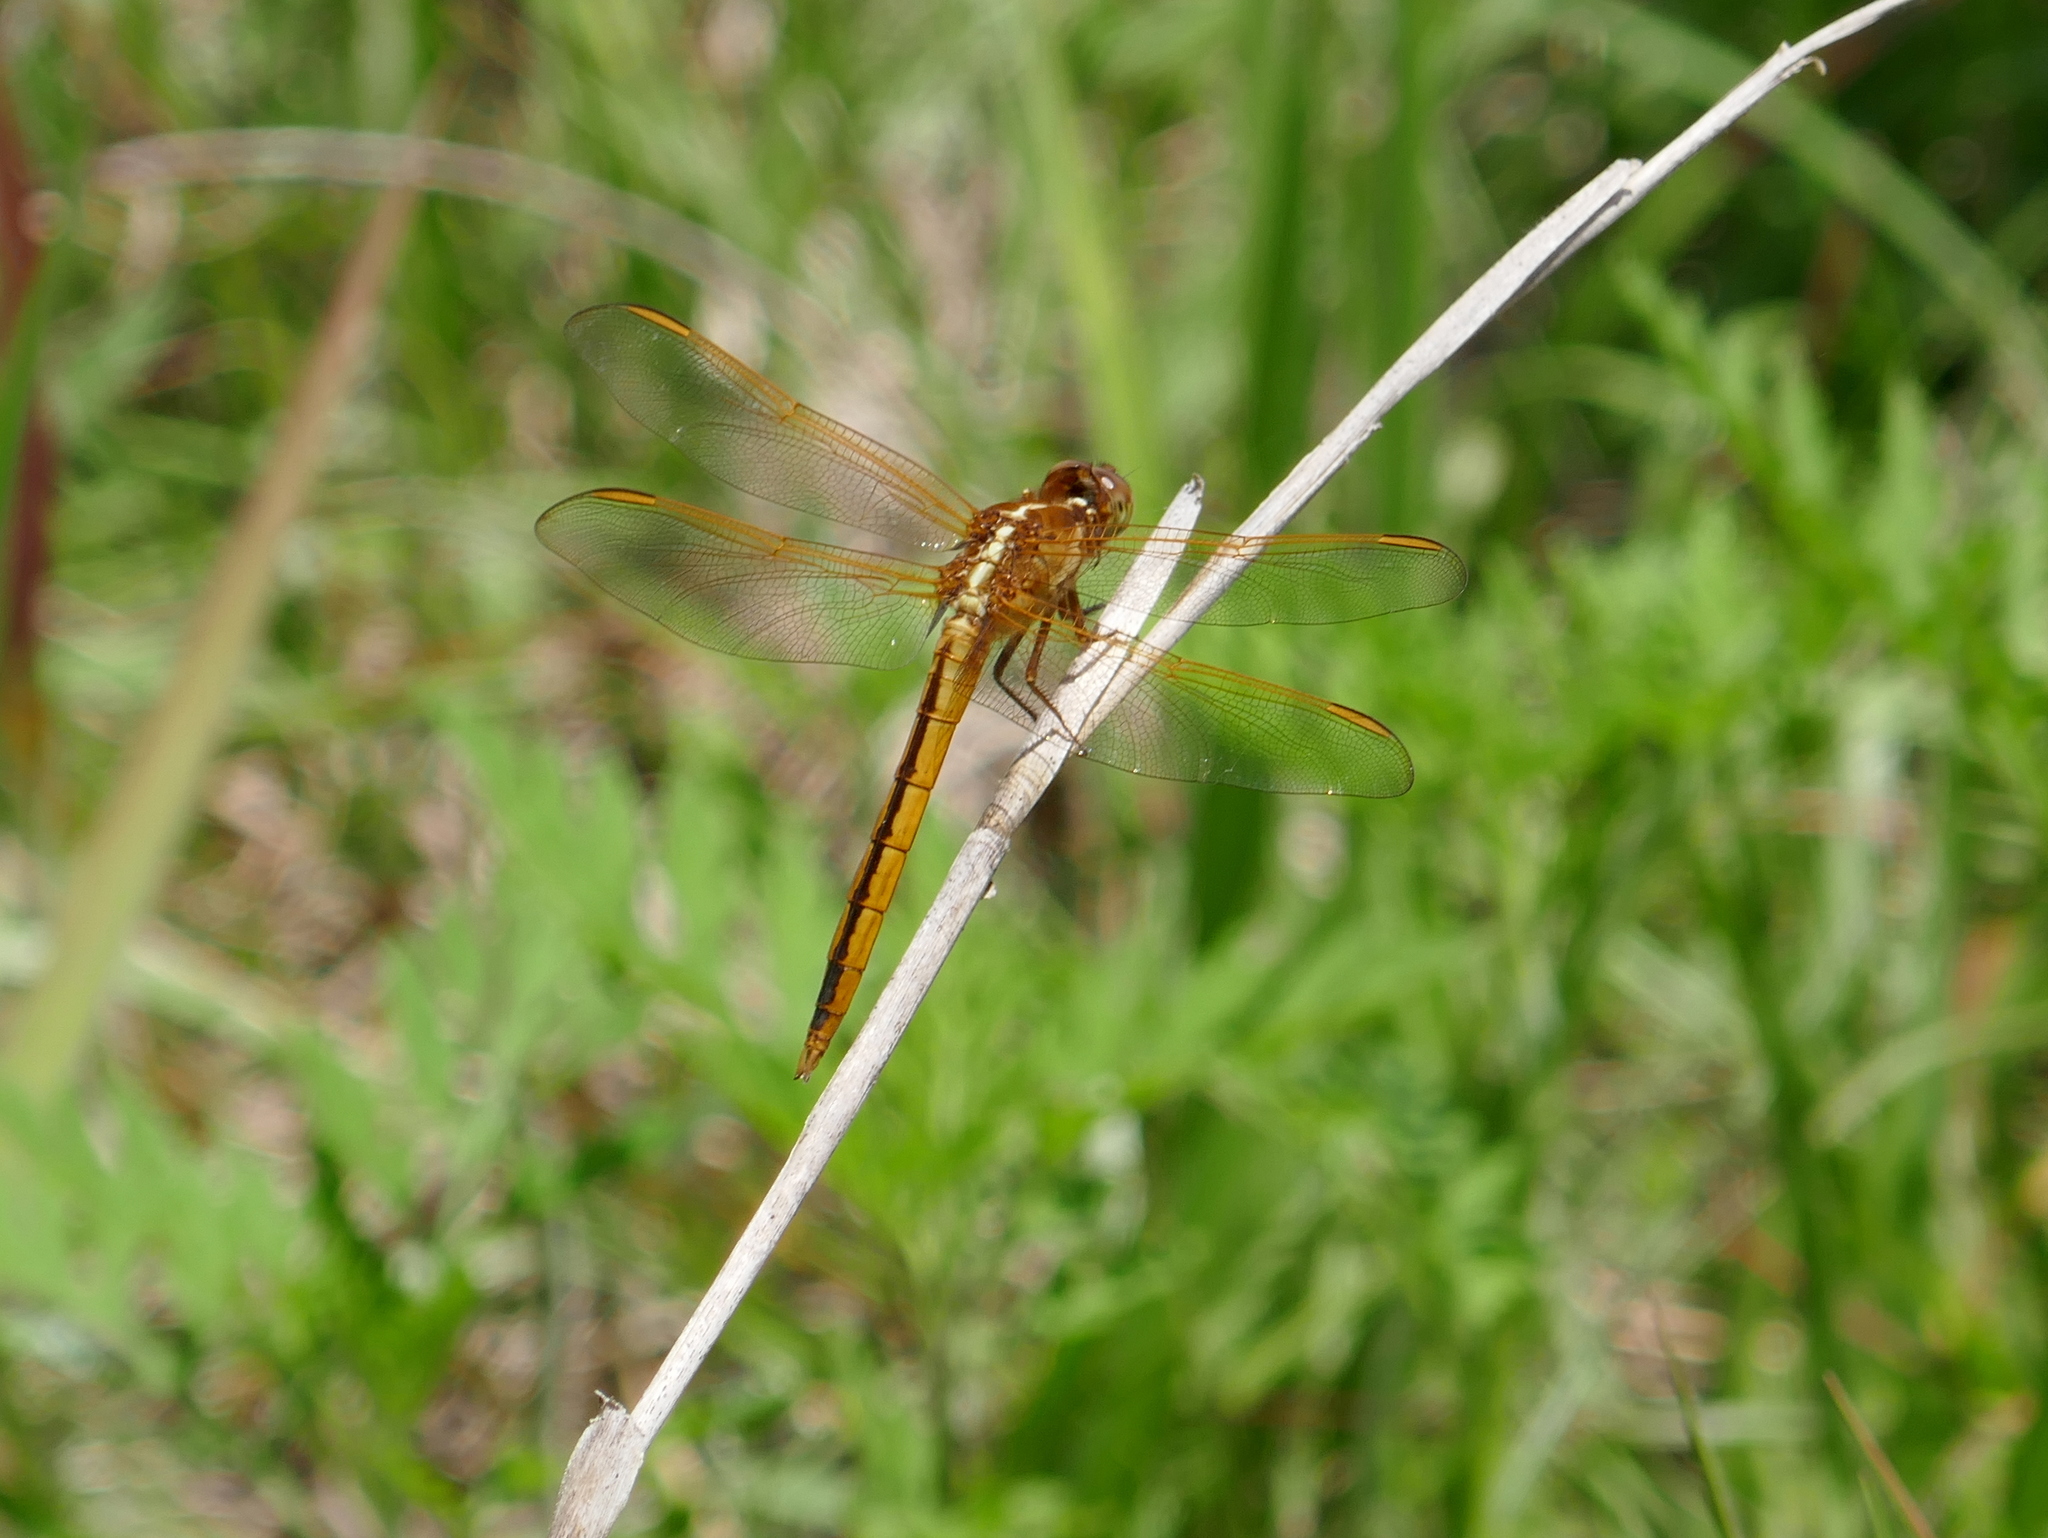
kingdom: Animalia
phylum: Arthropoda
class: Insecta
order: Odonata
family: Libellulidae
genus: Libellula
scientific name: Libellula needhami
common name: Needham's skimmer
